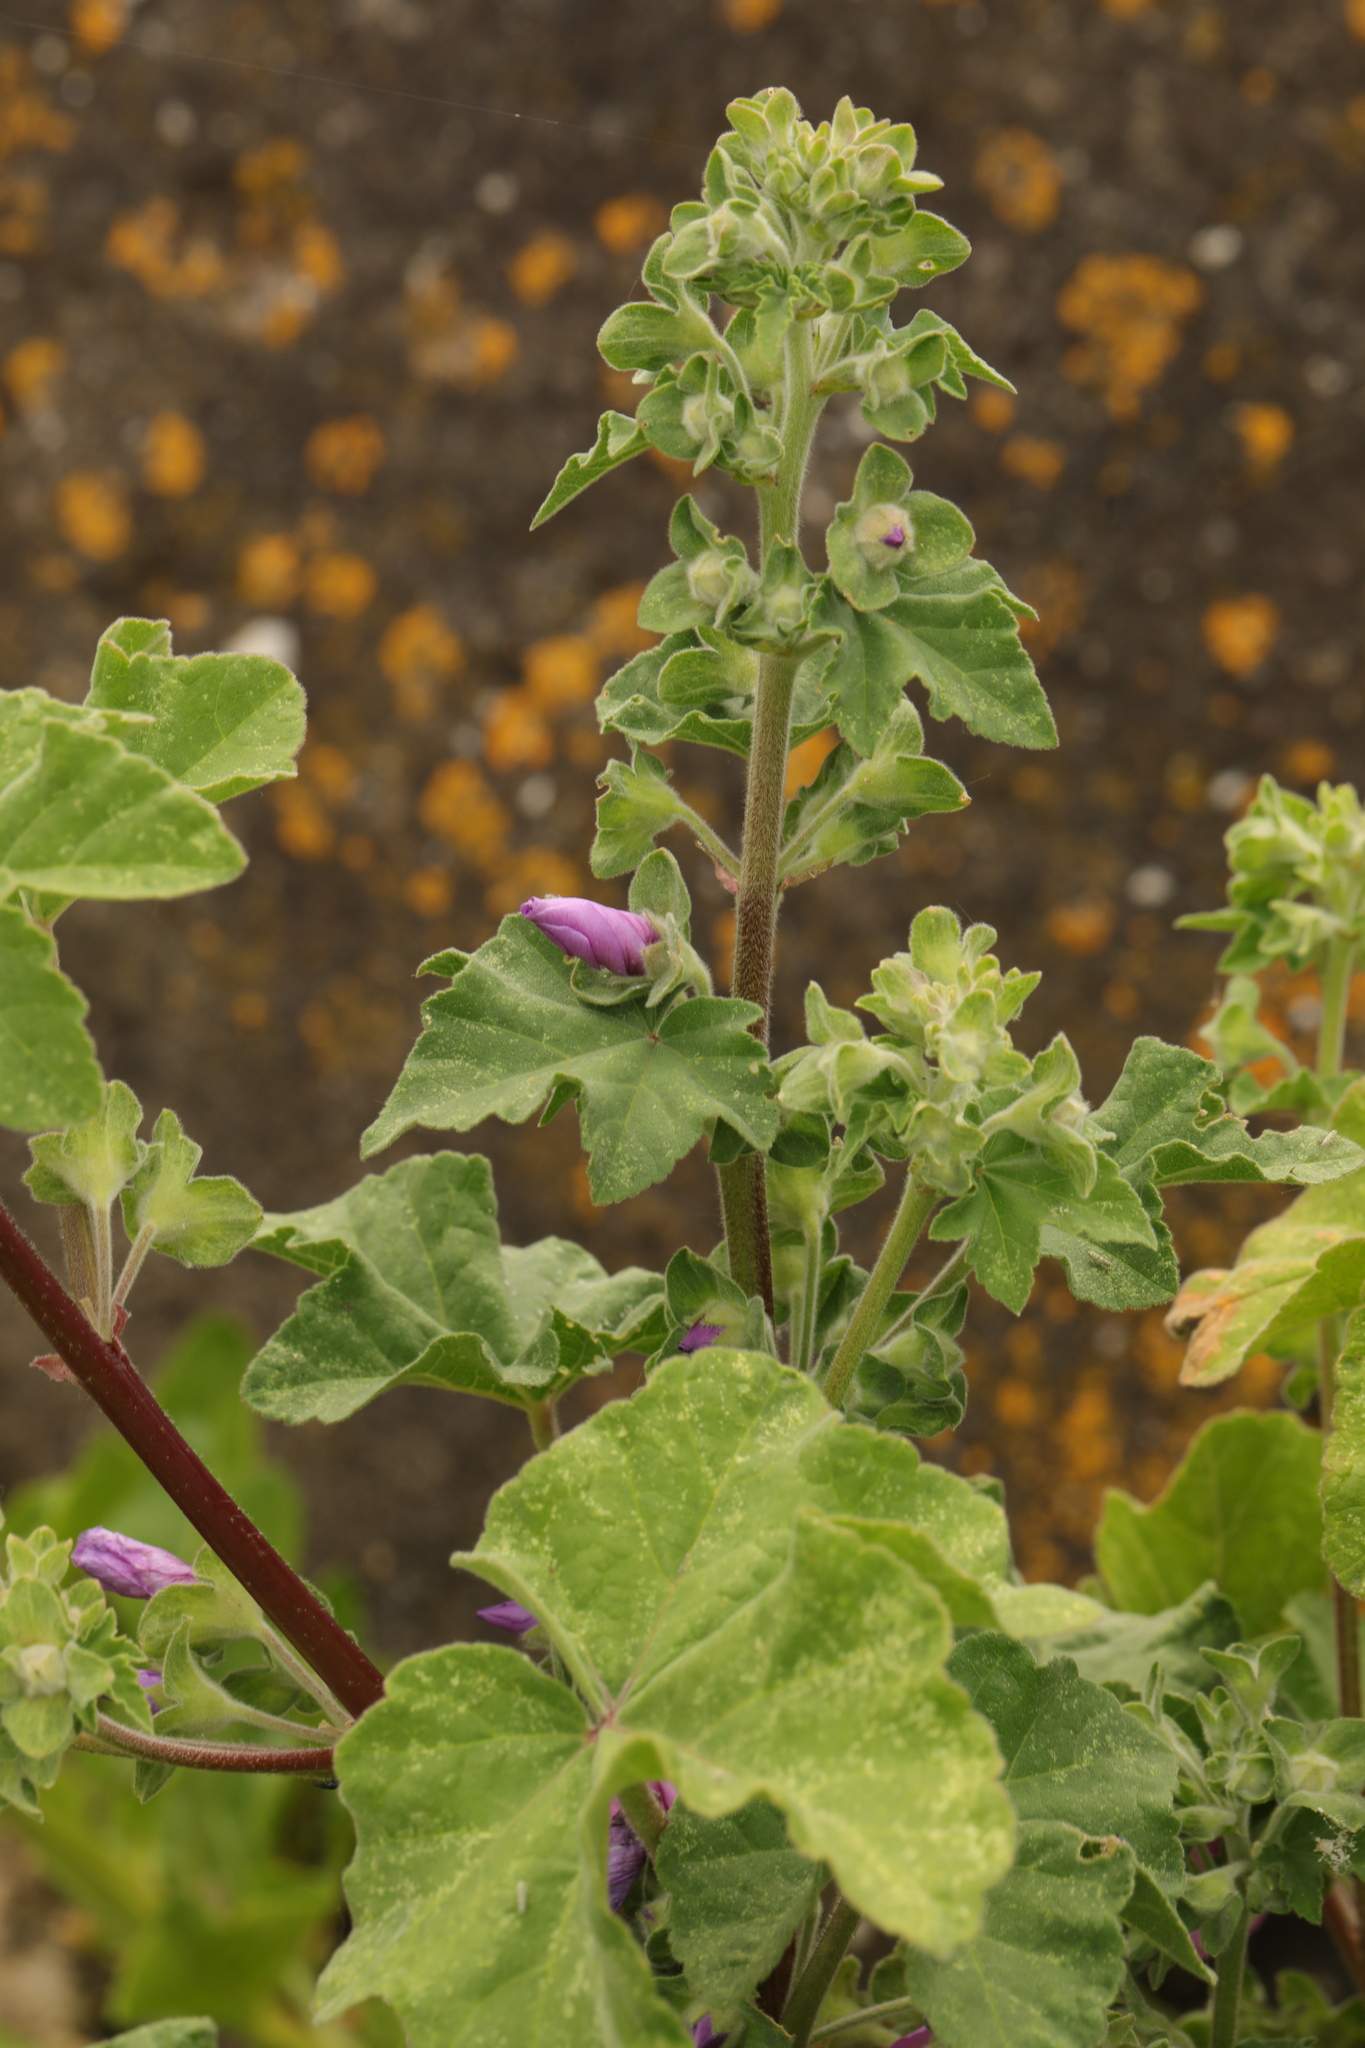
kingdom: Plantae
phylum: Tracheophyta
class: Magnoliopsida
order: Malvales
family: Malvaceae
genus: Malva
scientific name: Malva arborea
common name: Tree mallow
